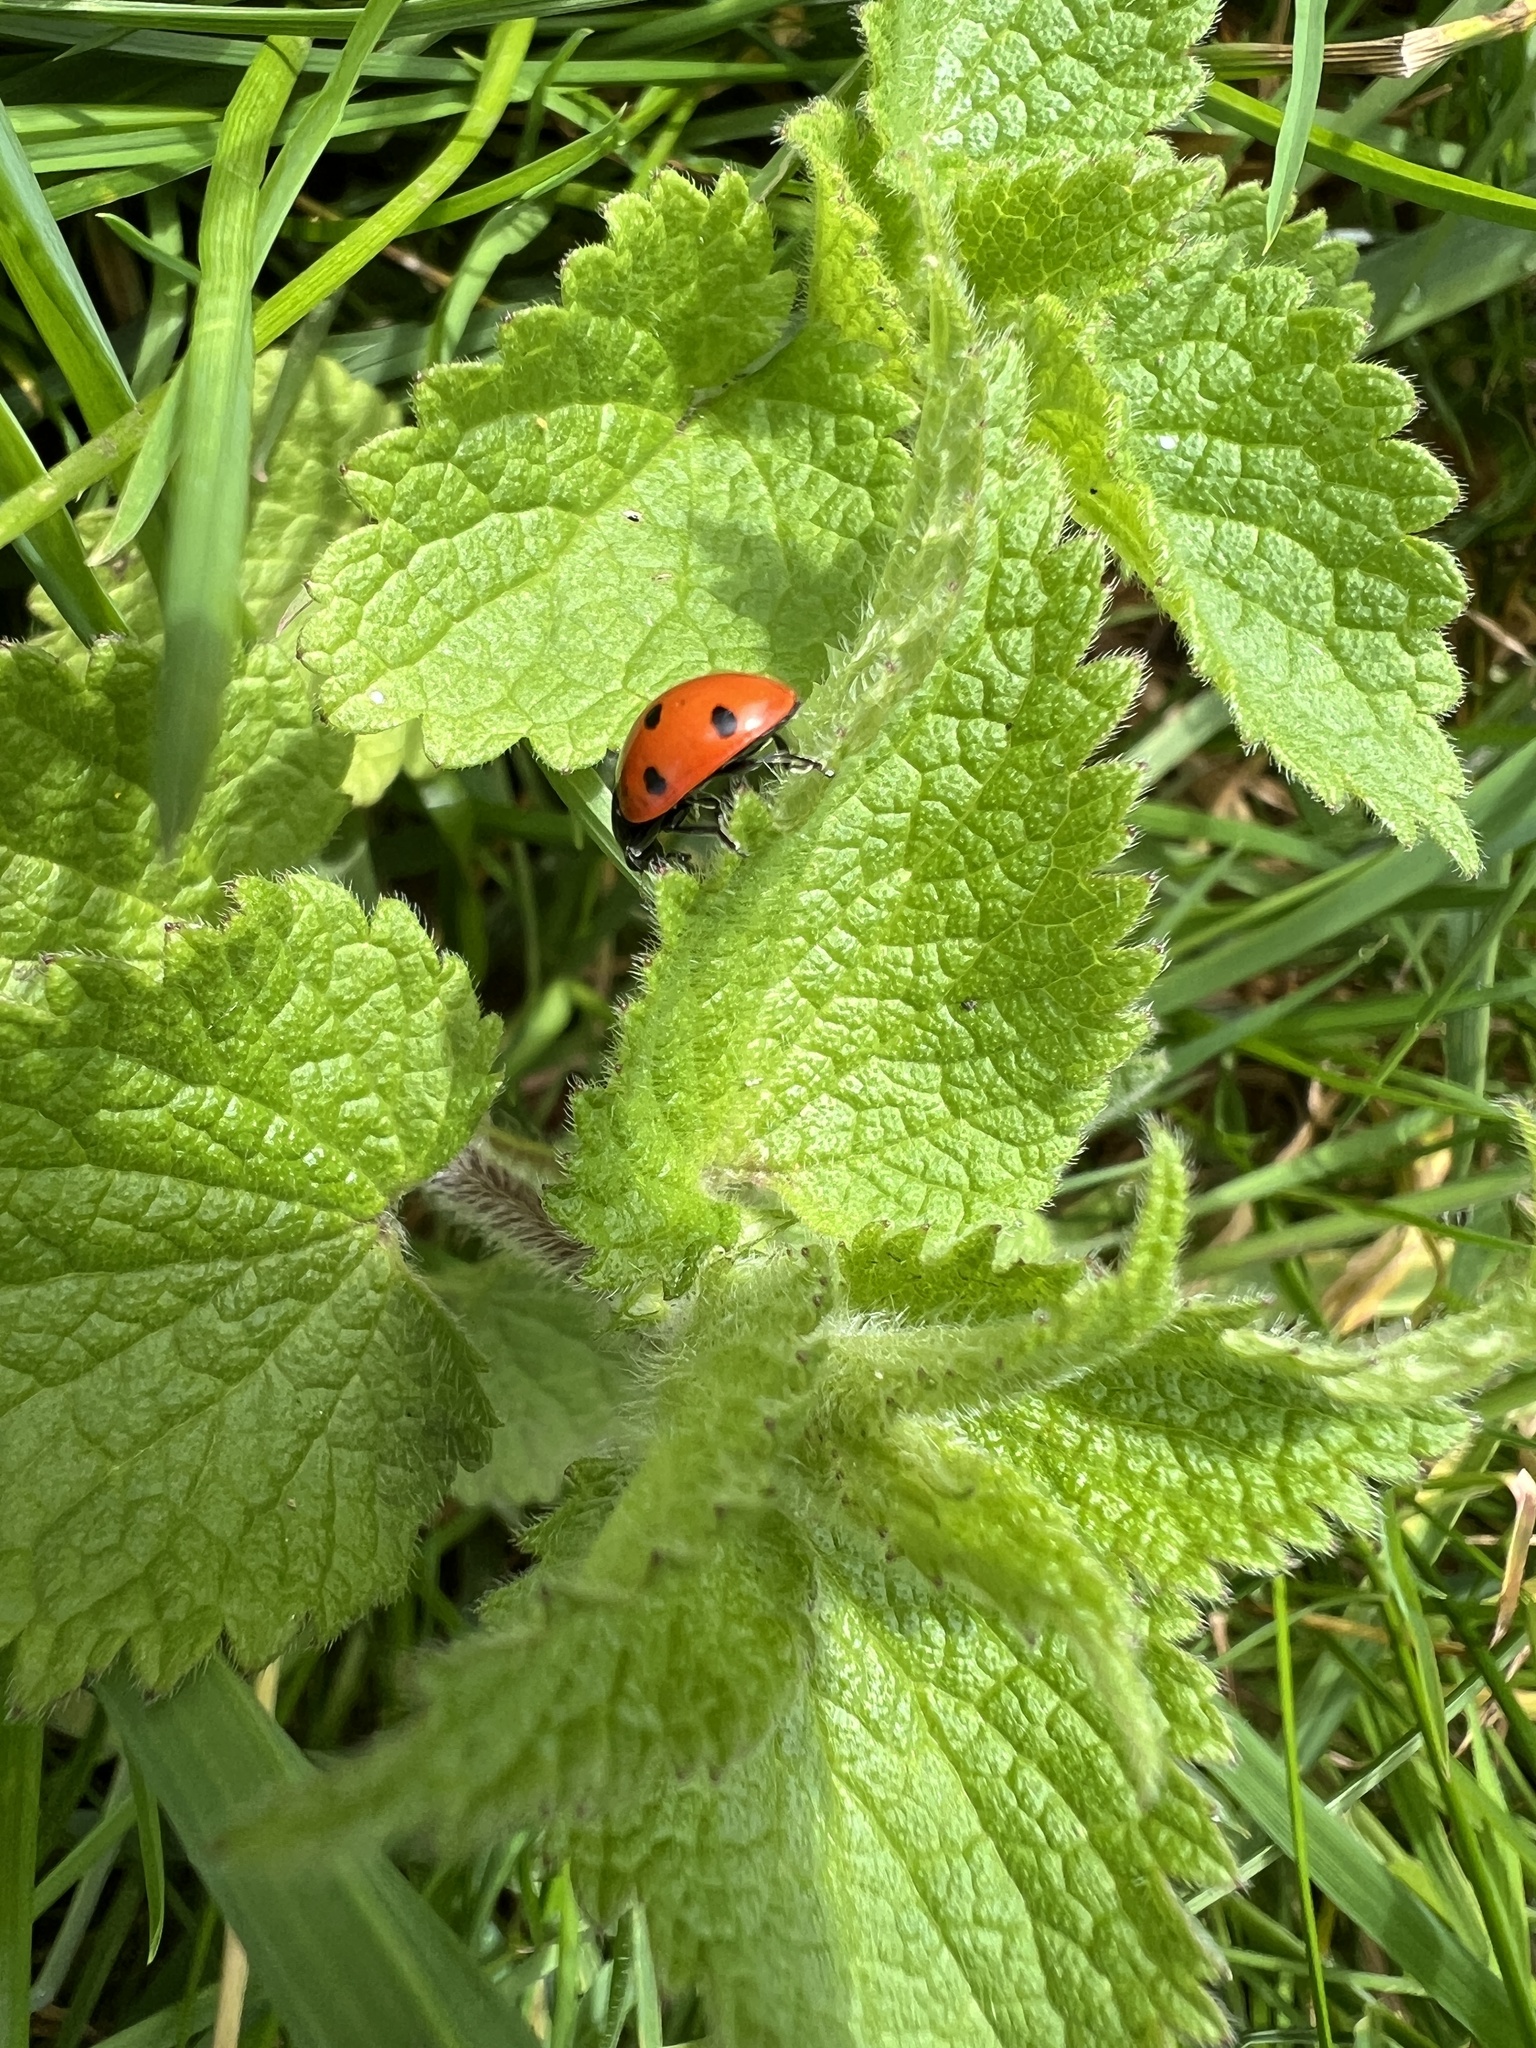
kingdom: Animalia
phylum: Arthropoda
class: Insecta
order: Coleoptera
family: Coccinellidae
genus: Coccinella
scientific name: Coccinella septempunctata
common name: Sevenspotted lady beetle
